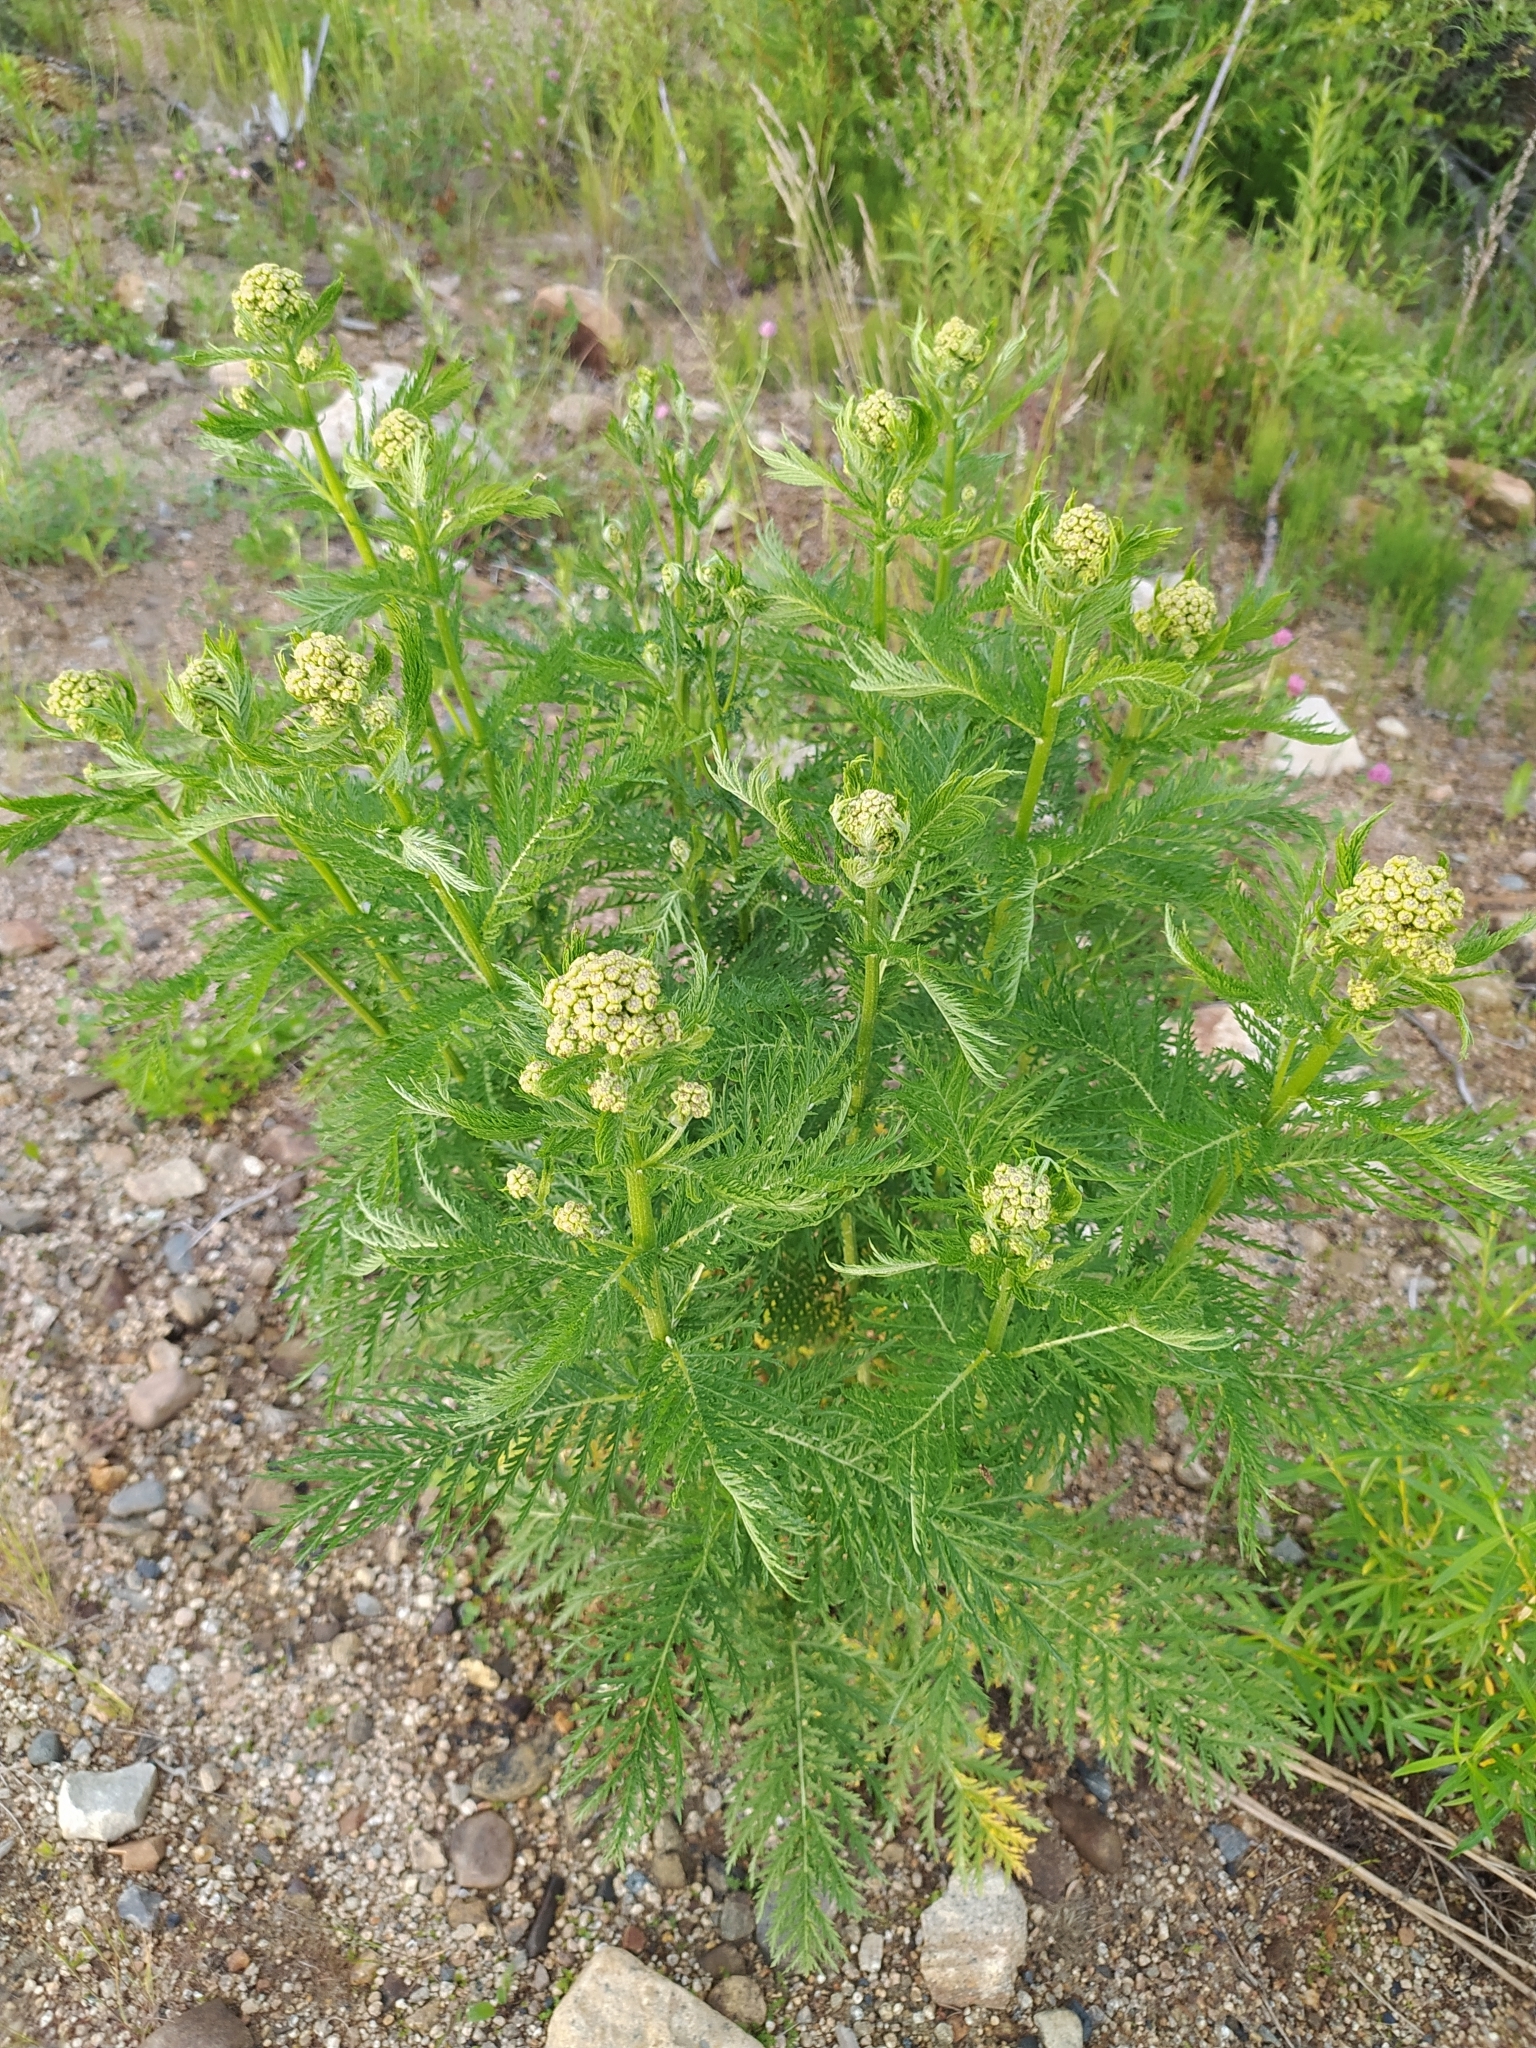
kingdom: Plantae
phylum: Tracheophyta
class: Magnoliopsida
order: Asterales
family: Asteraceae
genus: Tanacetum
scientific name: Tanacetum vulgare
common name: Common tansy
